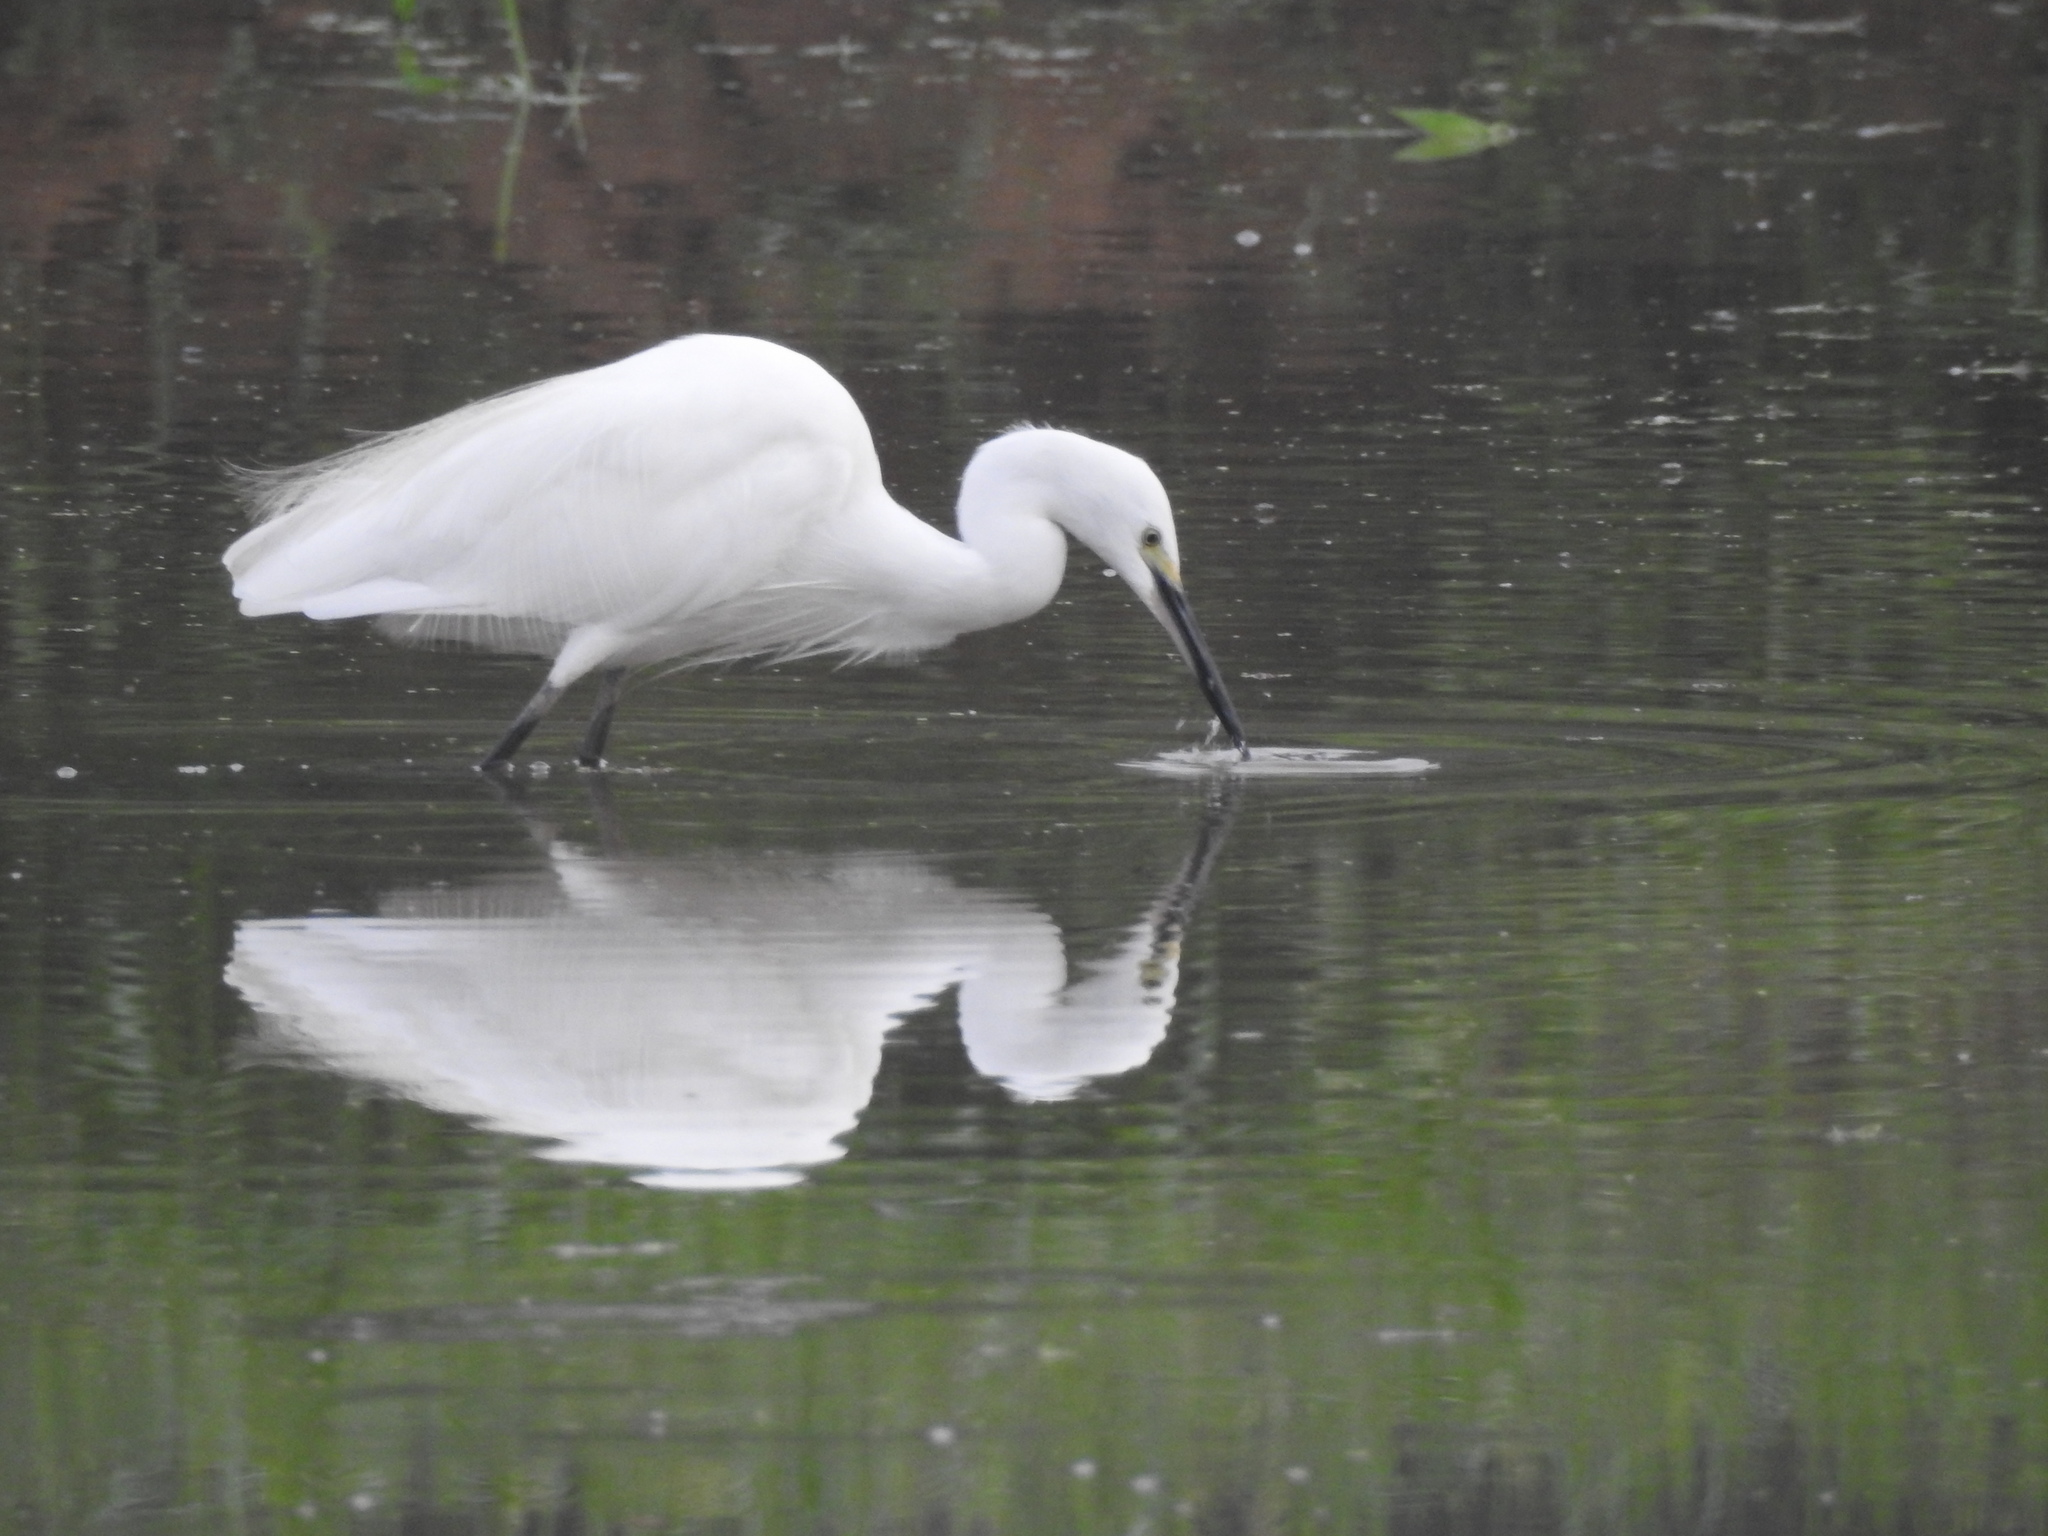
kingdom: Animalia
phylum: Chordata
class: Aves
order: Pelecaniformes
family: Ardeidae
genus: Egretta
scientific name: Egretta garzetta
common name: Little egret
